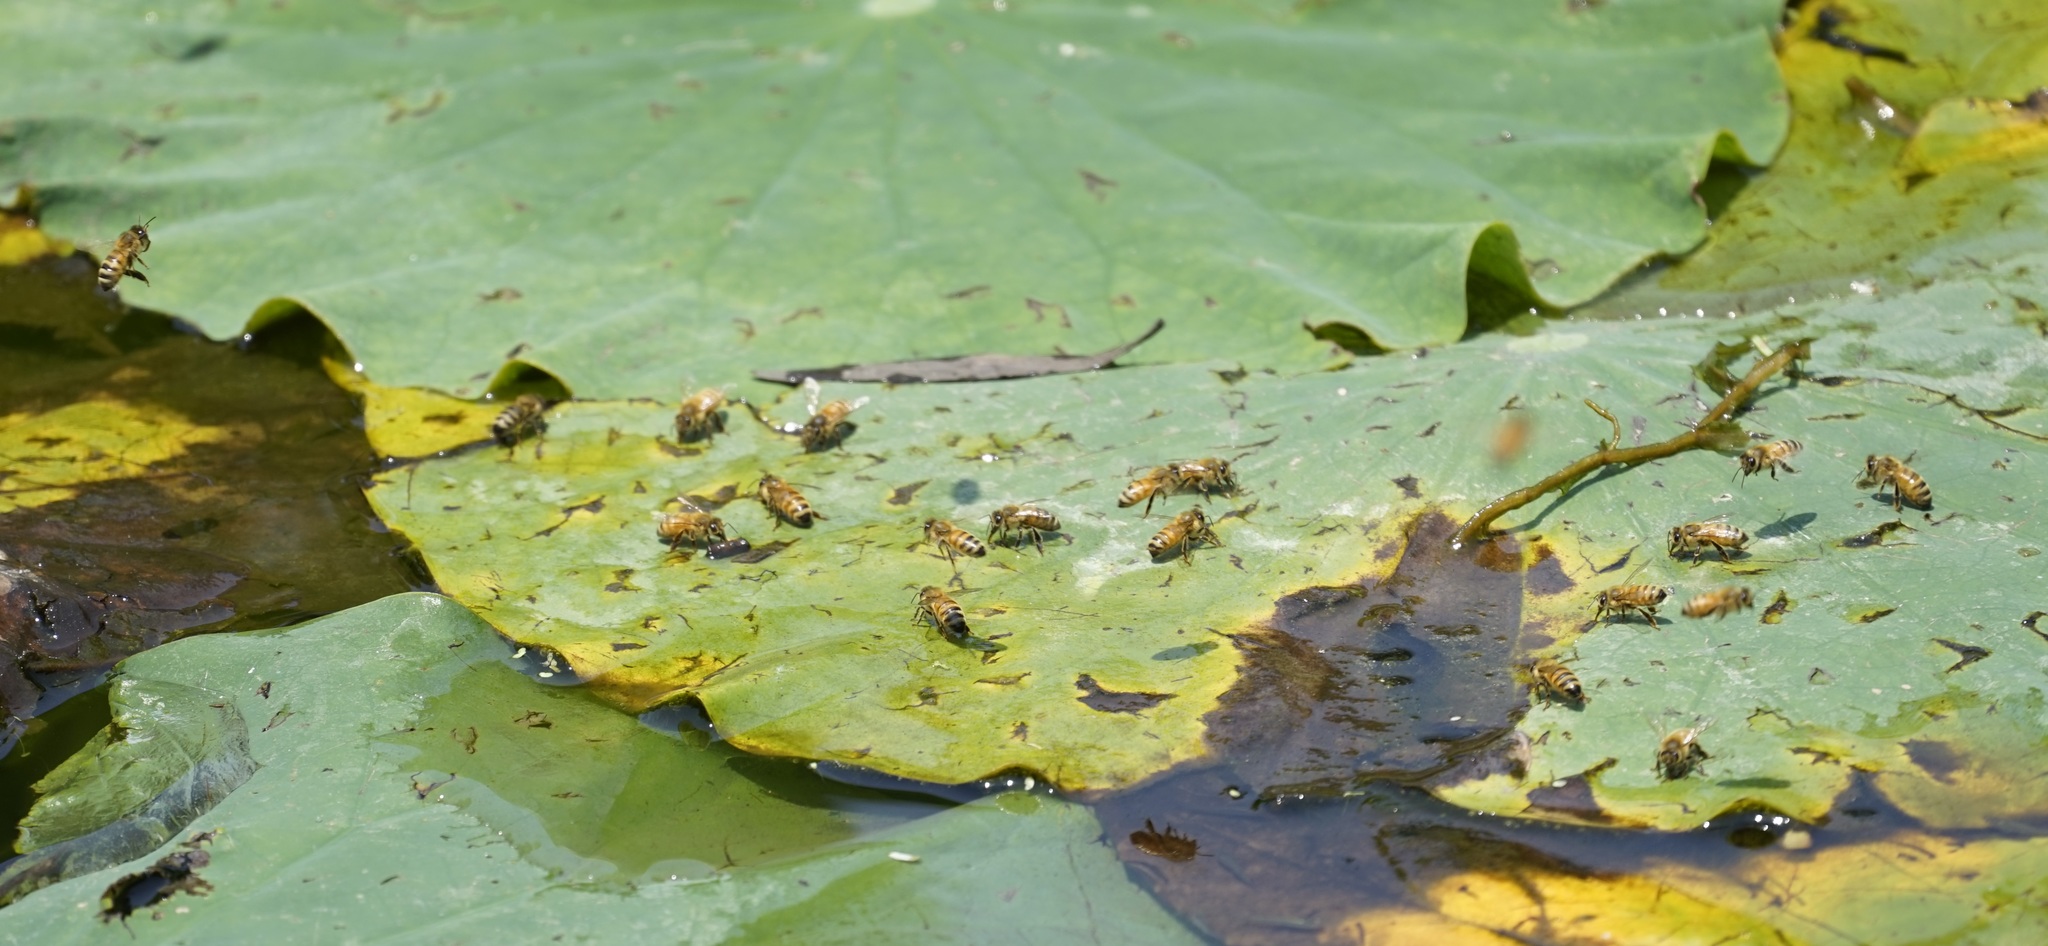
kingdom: Animalia
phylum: Arthropoda
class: Insecta
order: Hymenoptera
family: Apidae
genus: Apis
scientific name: Apis mellifera
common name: Honey bee
